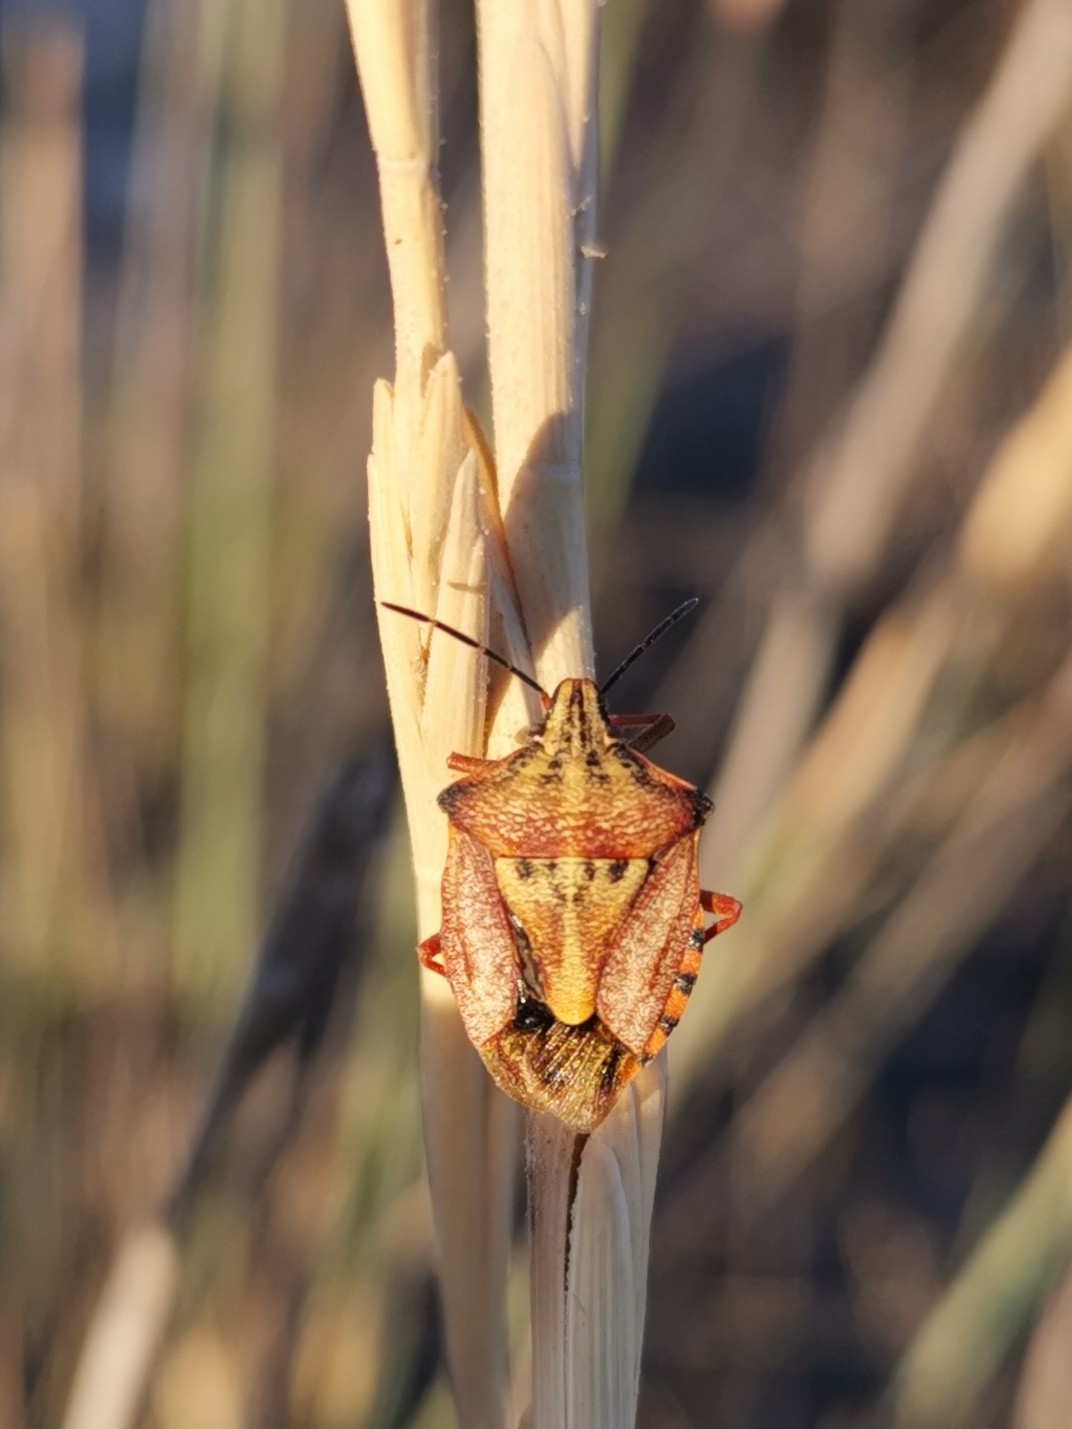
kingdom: Animalia
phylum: Arthropoda
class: Insecta
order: Hemiptera
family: Pentatomidae
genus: Carpocoris
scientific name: Carpocoris mediterraneus
